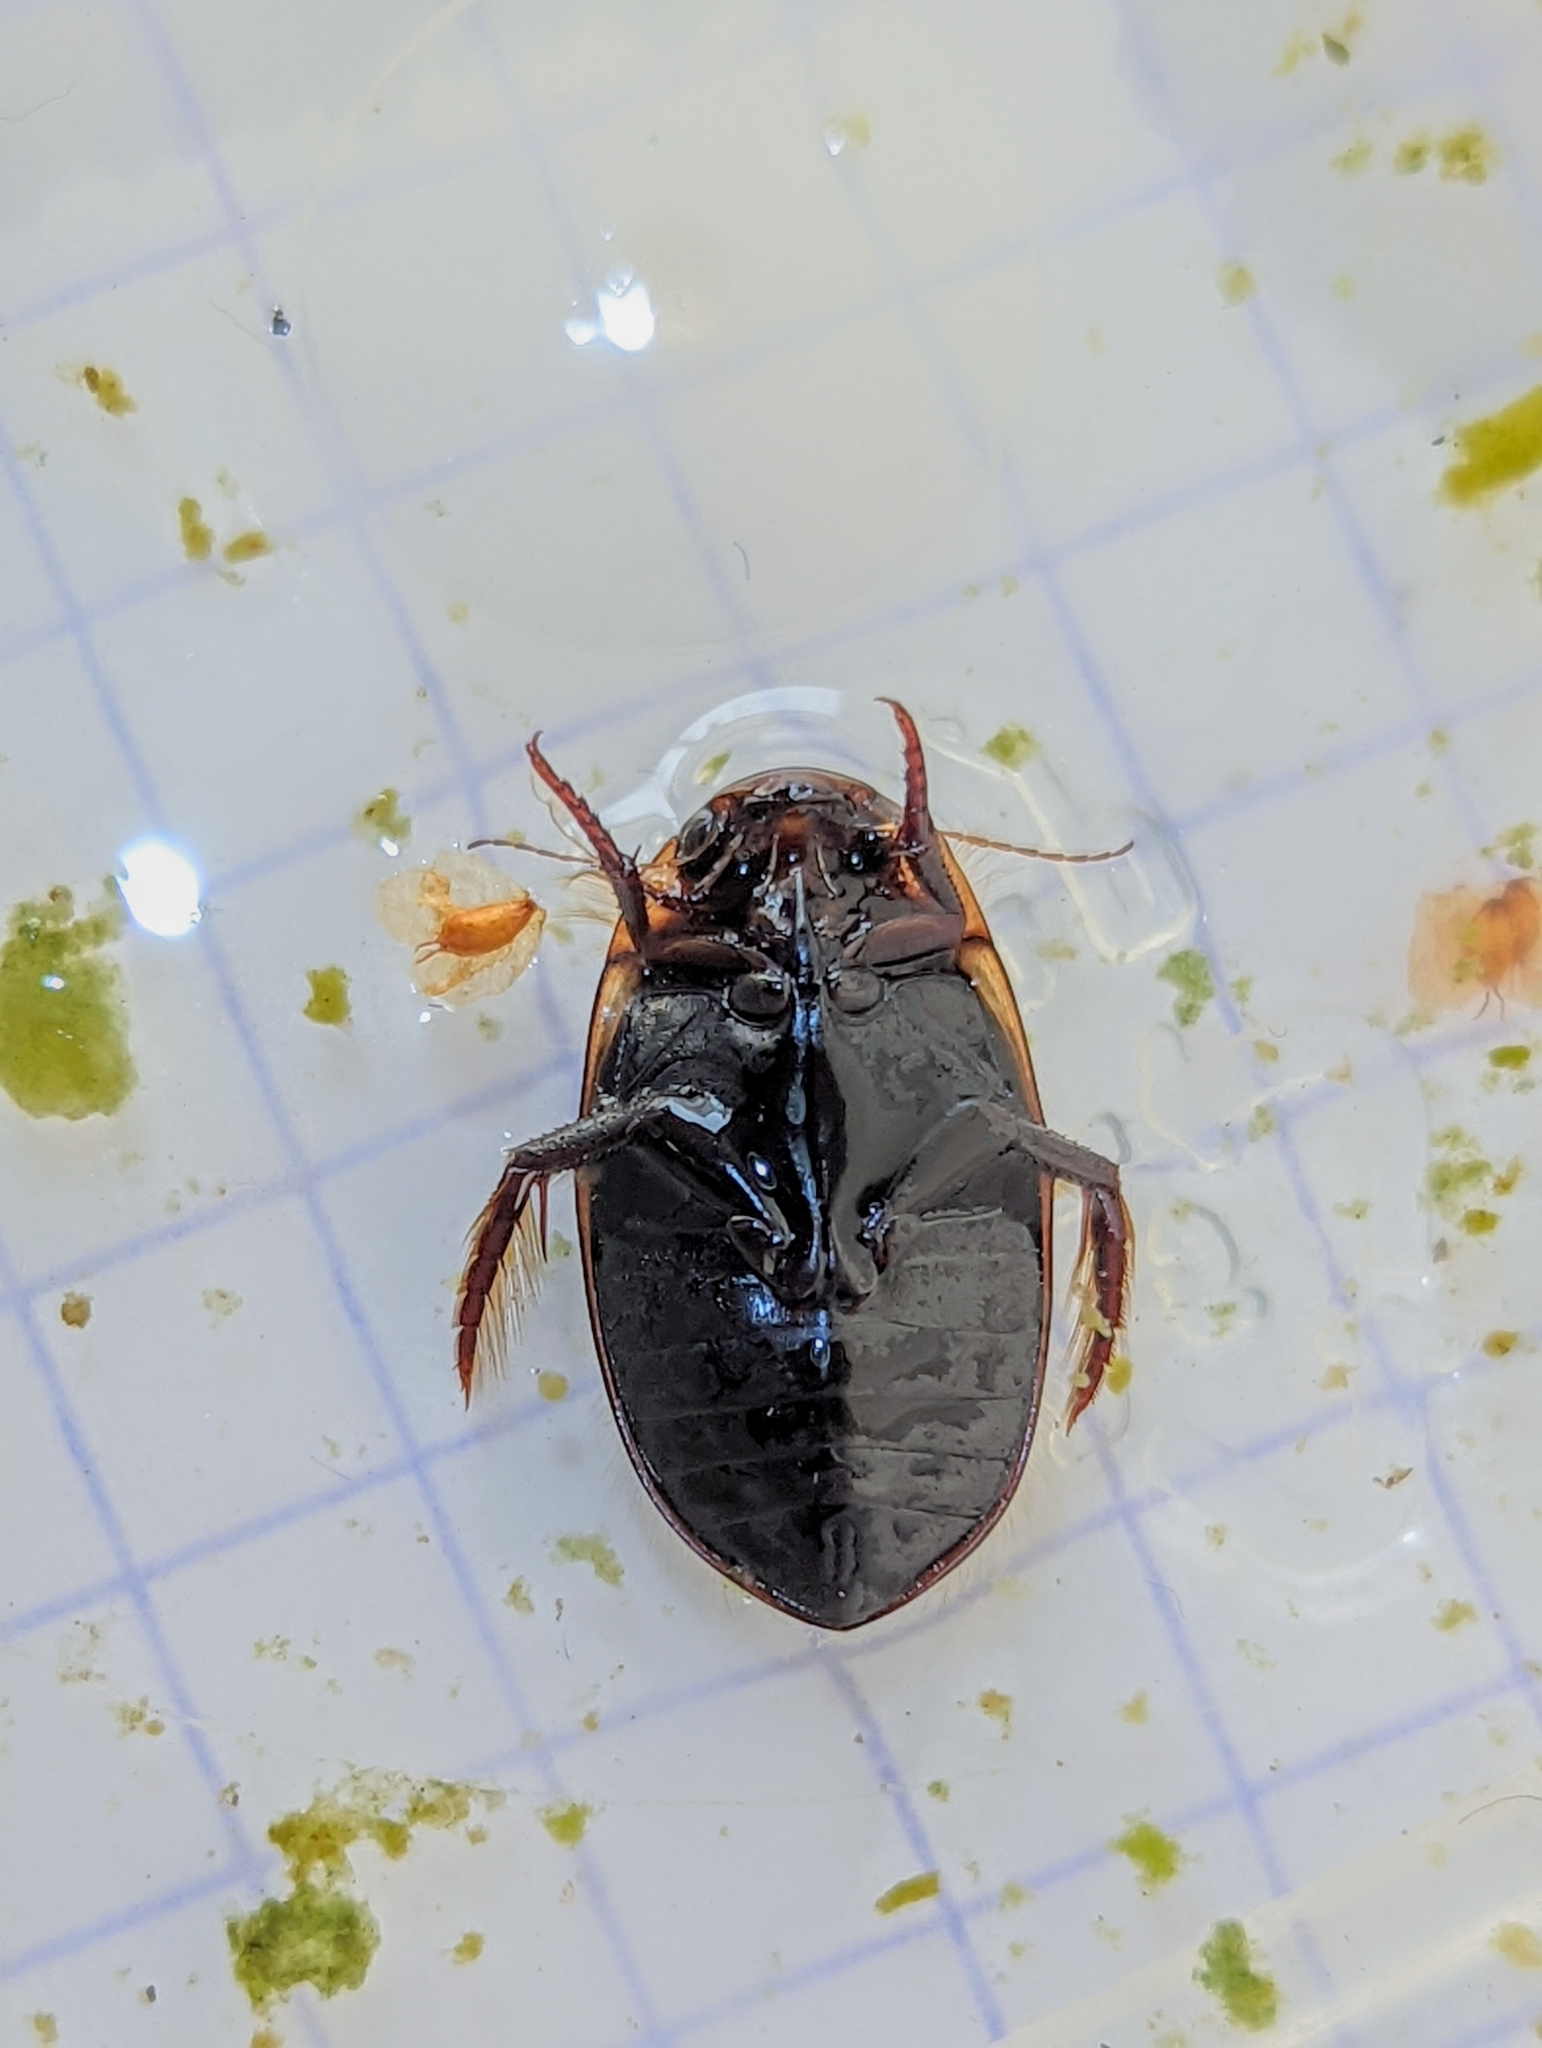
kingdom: Animalia
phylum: Arthropoda
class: Insecta
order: Coleoptera
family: Dytiscidae
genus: Hydaticus
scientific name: Hydaticus seminiger
